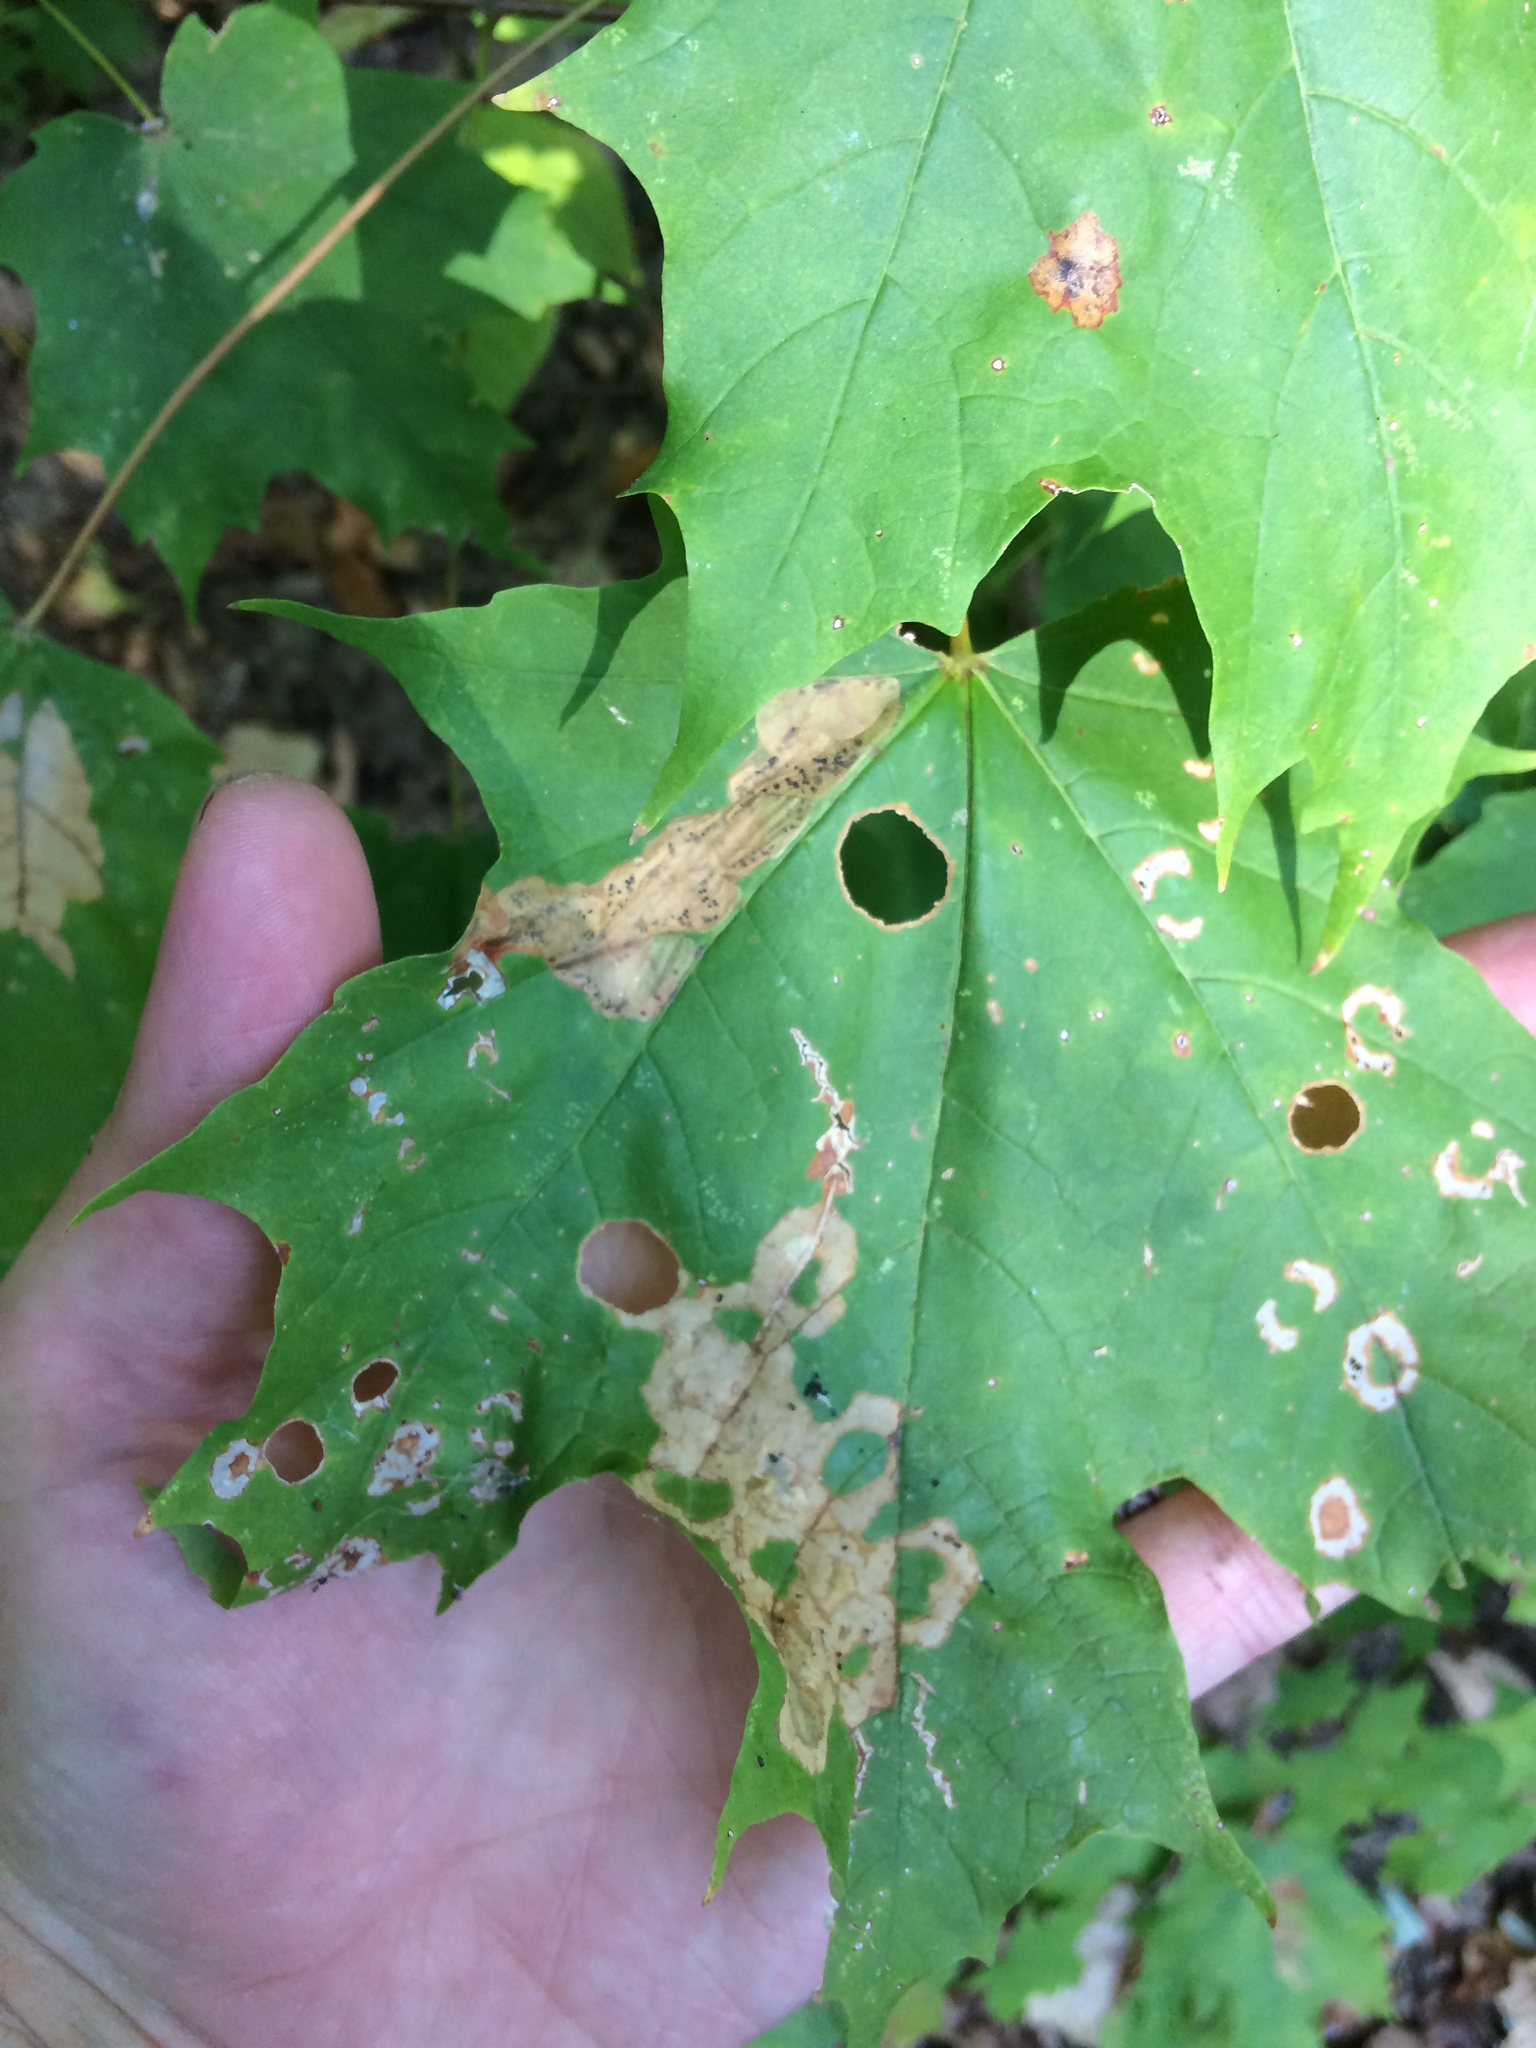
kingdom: Animalia
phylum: Arthropoda
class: Insecta
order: Lepidoptera
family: Incurvariidae
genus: Paraclemensia
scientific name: Paraclemensia acerifoliella
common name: Maple leafcutter
